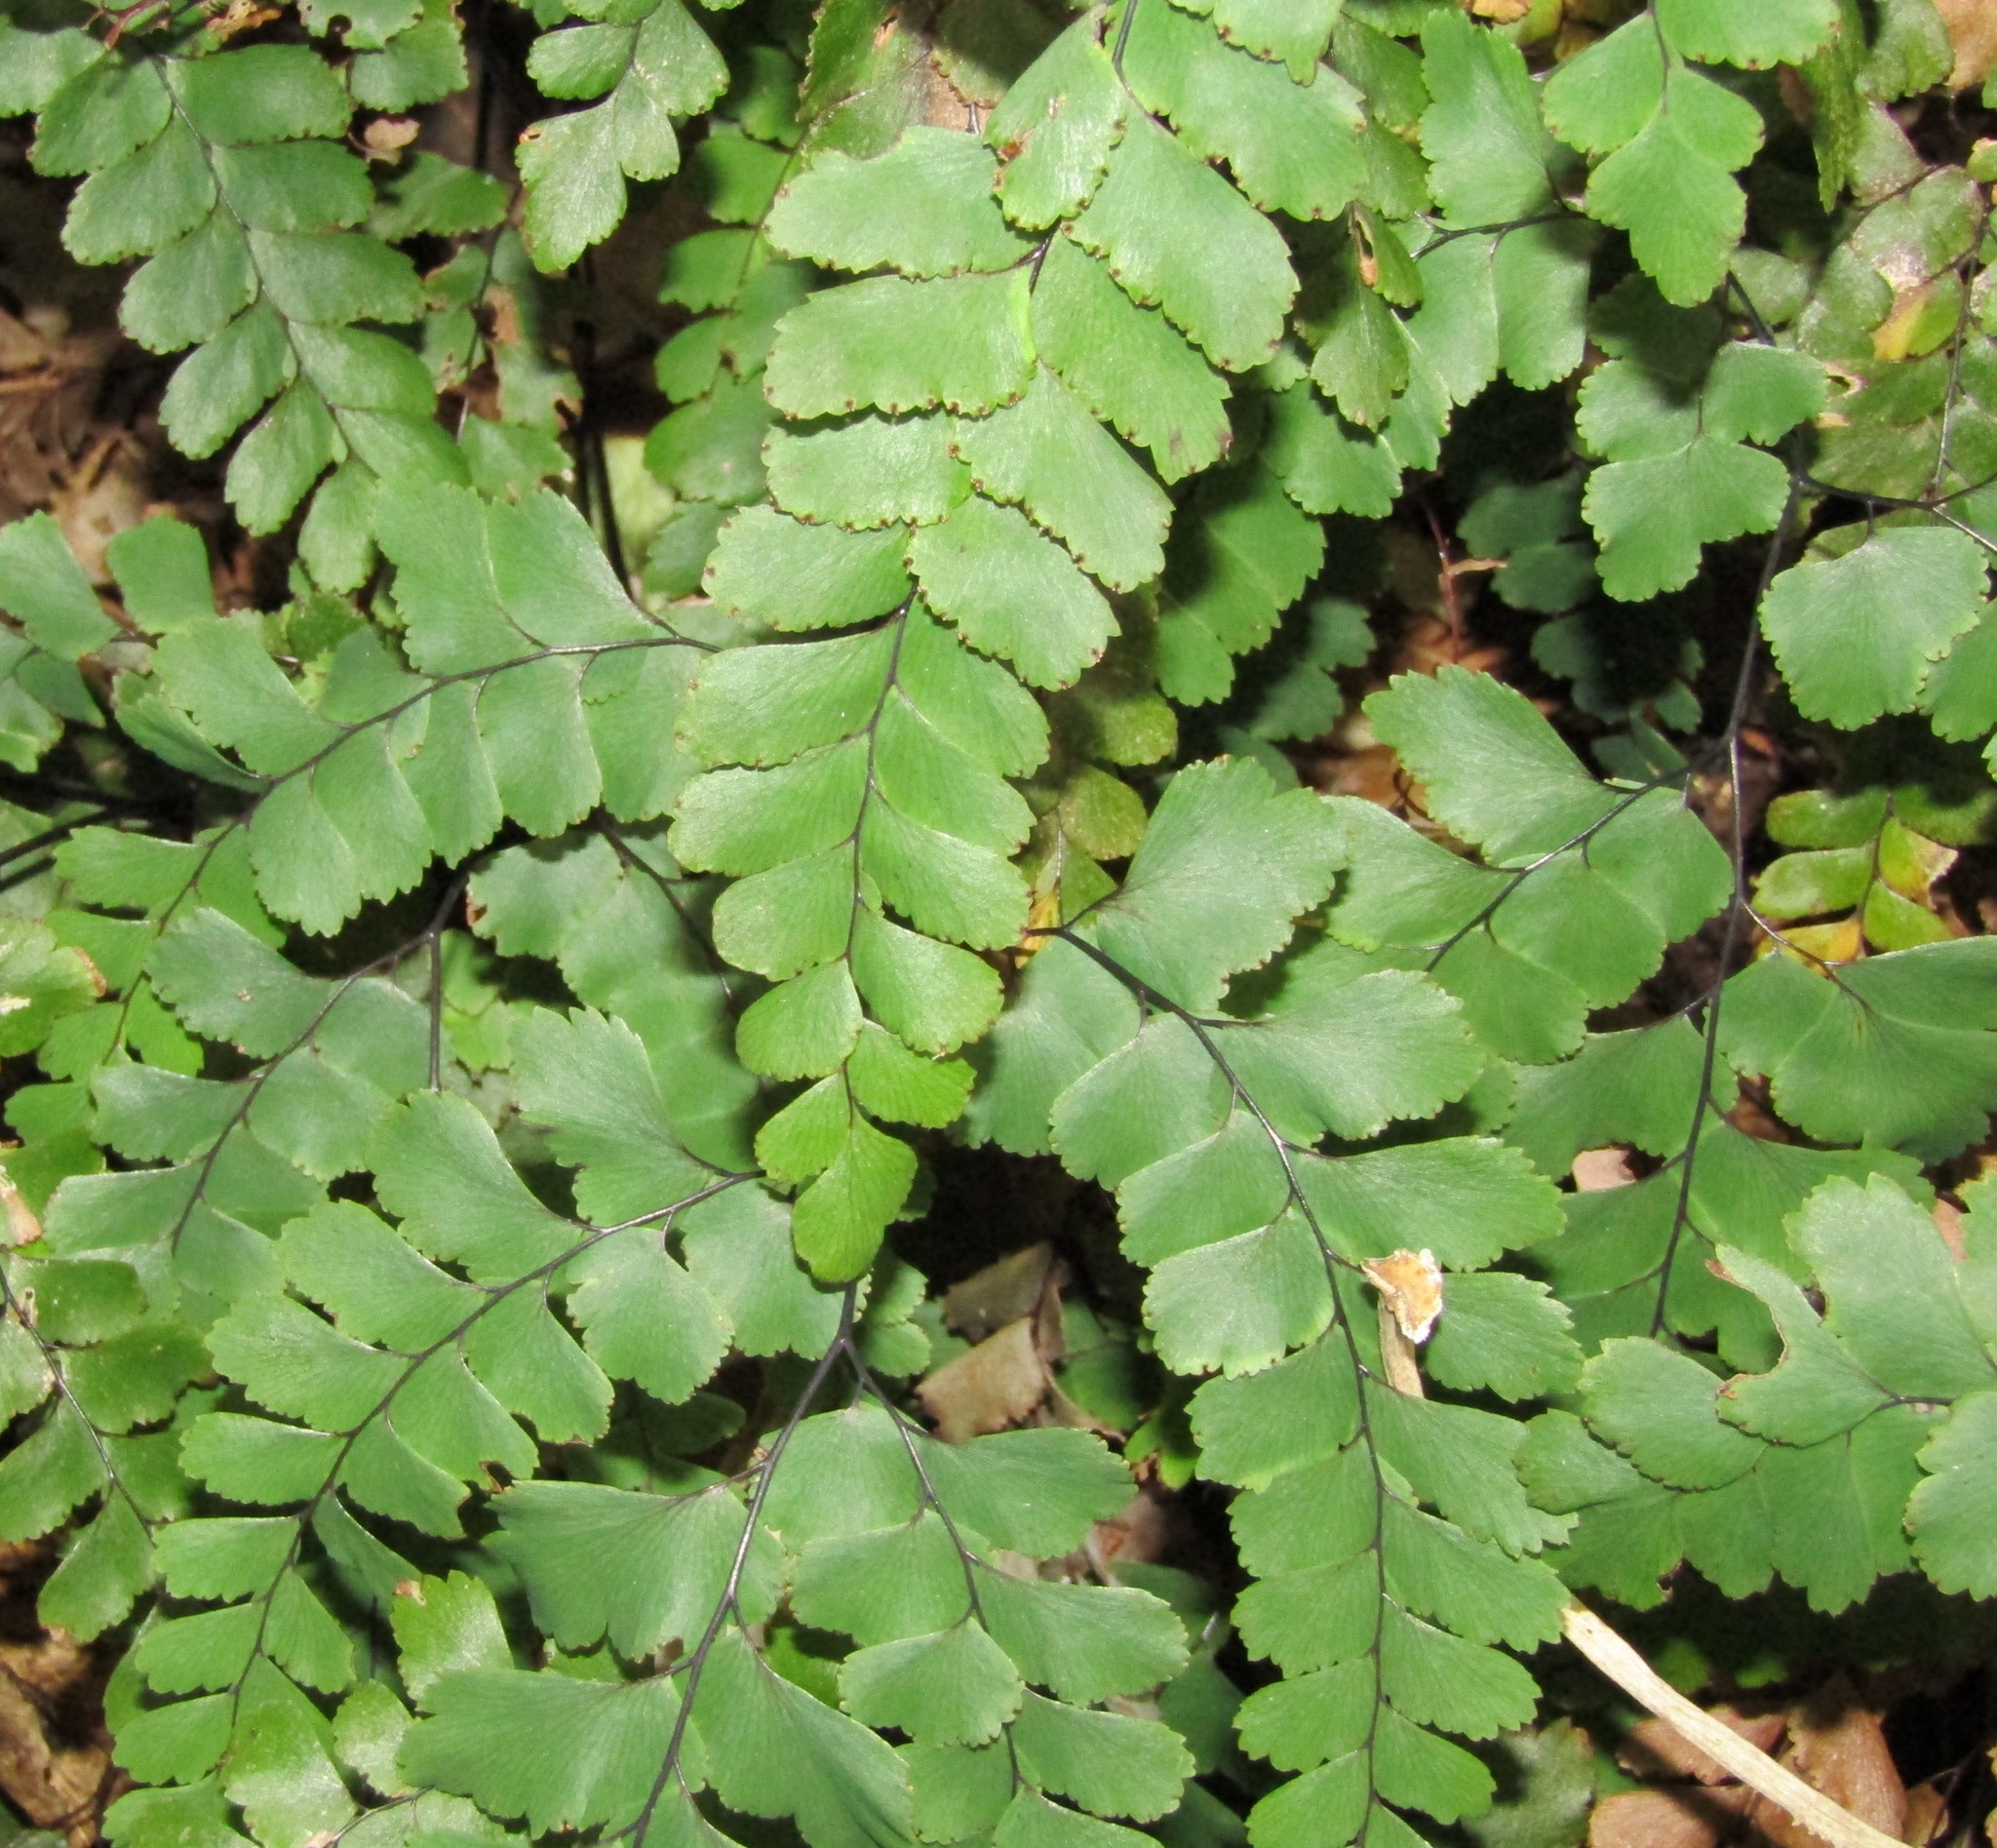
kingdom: Plantae
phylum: Tracheophyta
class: Polypodiopsida
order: Polypodiales
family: Pteridaceae
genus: Adiantum
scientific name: Adiantum cunninghamii
